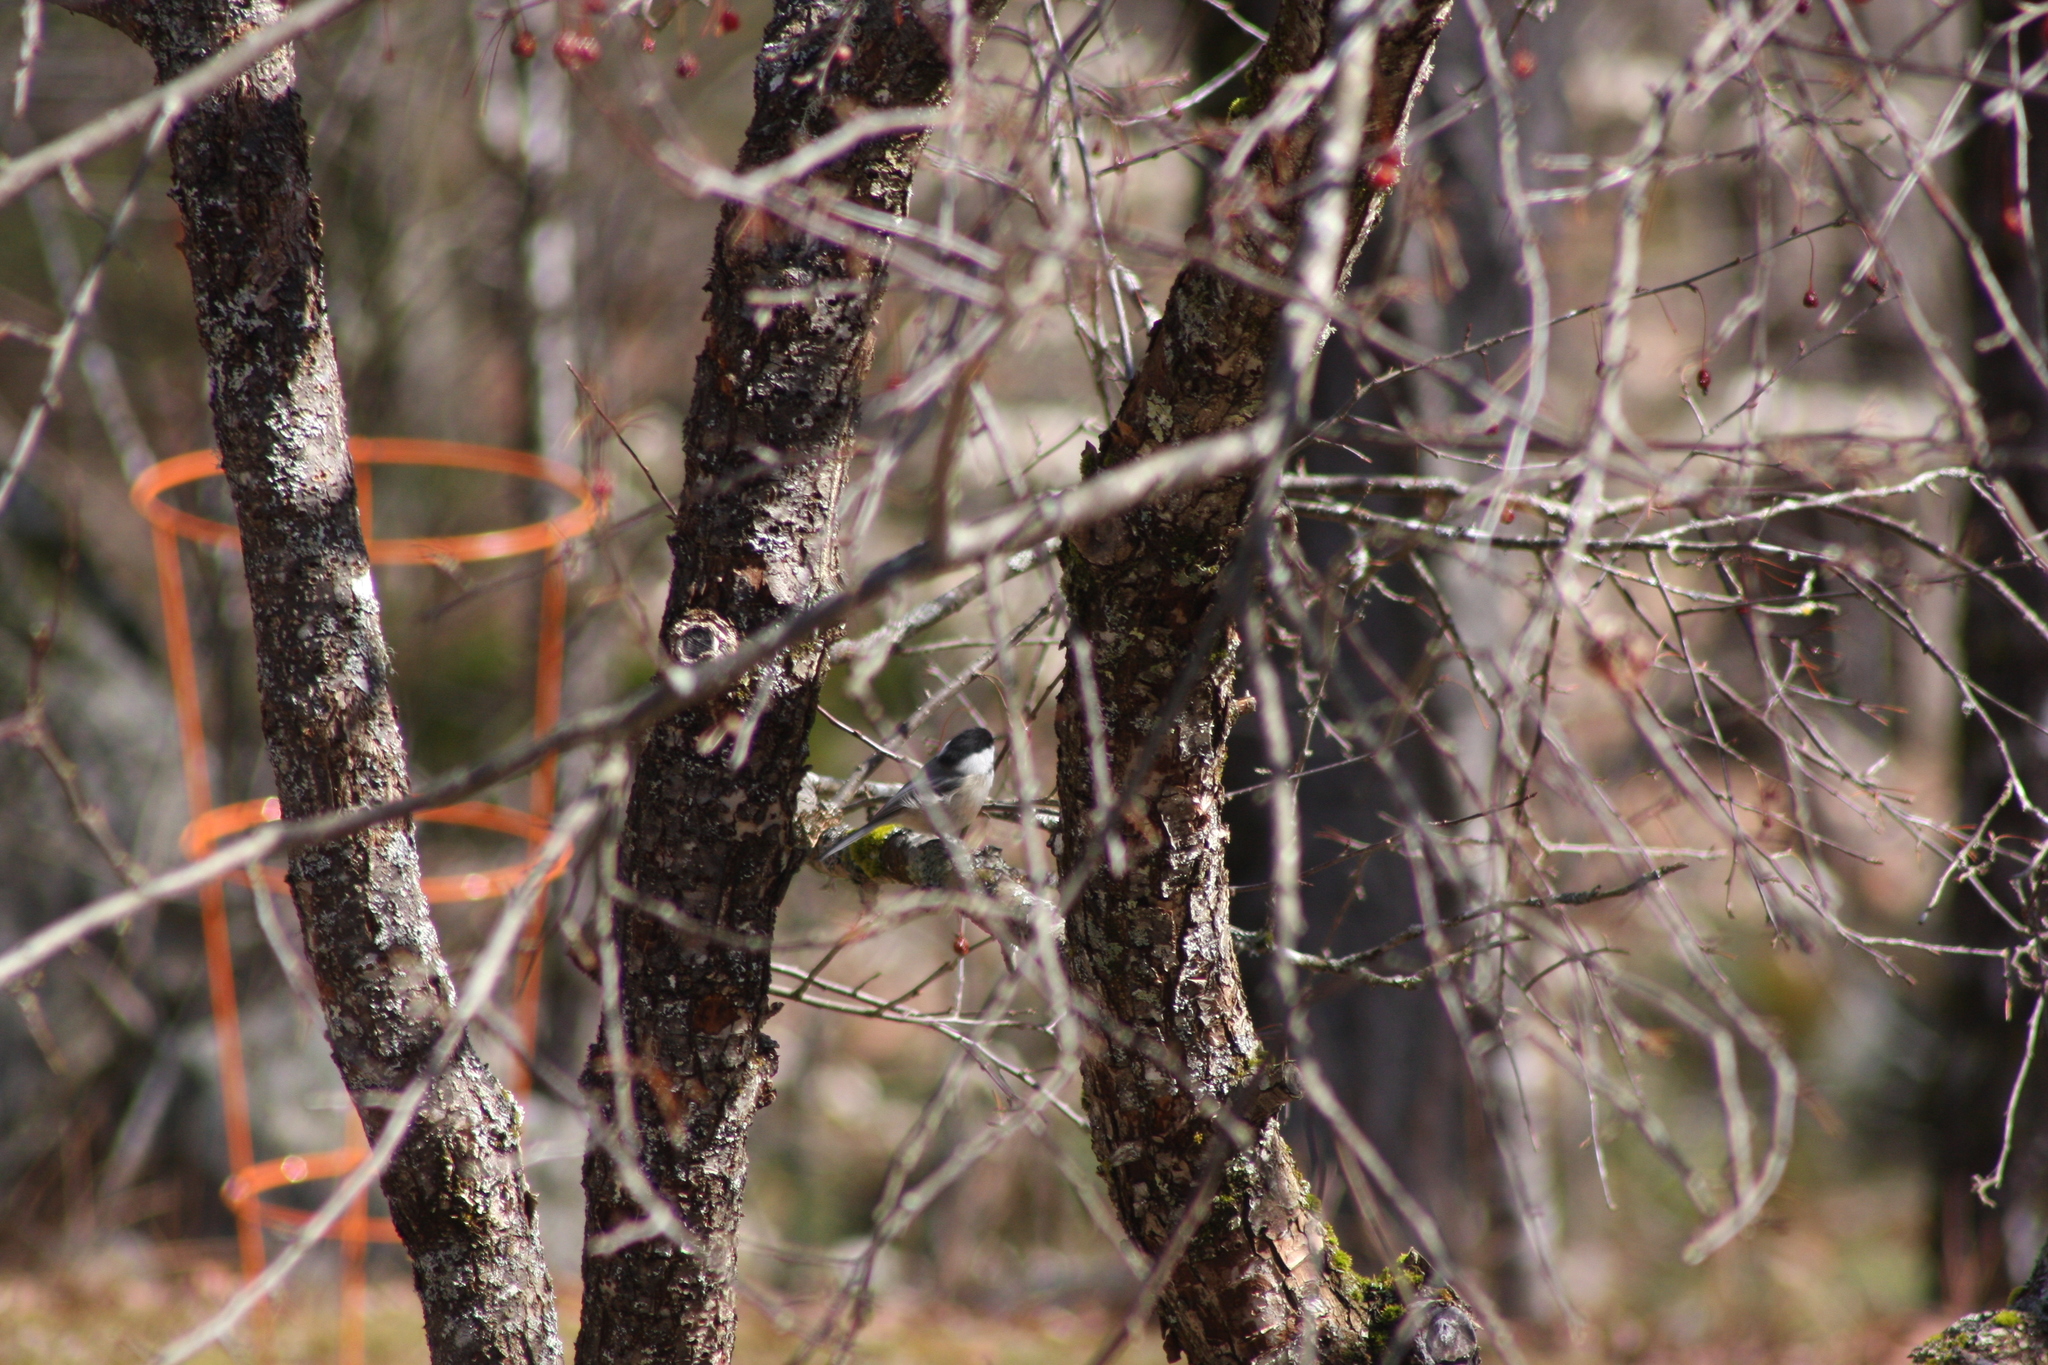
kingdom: Animalia
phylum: Chordata
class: Aves
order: Passeriformes
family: Paridae
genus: Poecile
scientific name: Poecile atricapillus
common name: Black-capped chickadee
